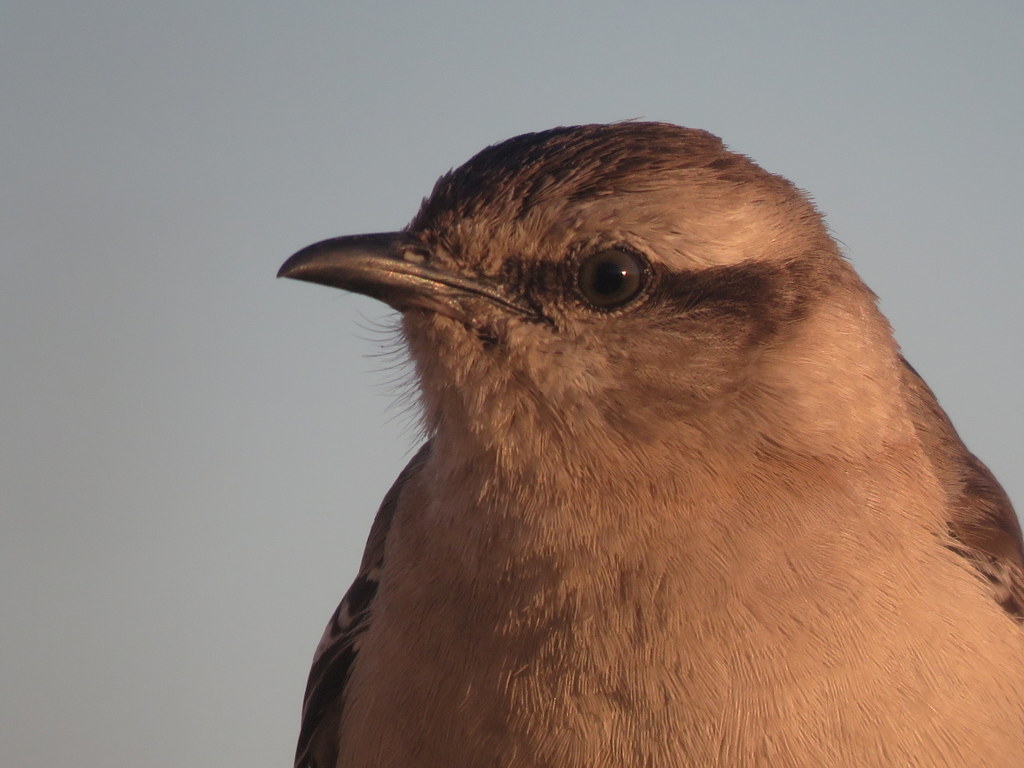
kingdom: Animalia
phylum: Chordata
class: Aves
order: Passeriformes
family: Mimidae
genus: Mimus
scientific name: Mimus saturninus
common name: Chalk-browed mockingbird
